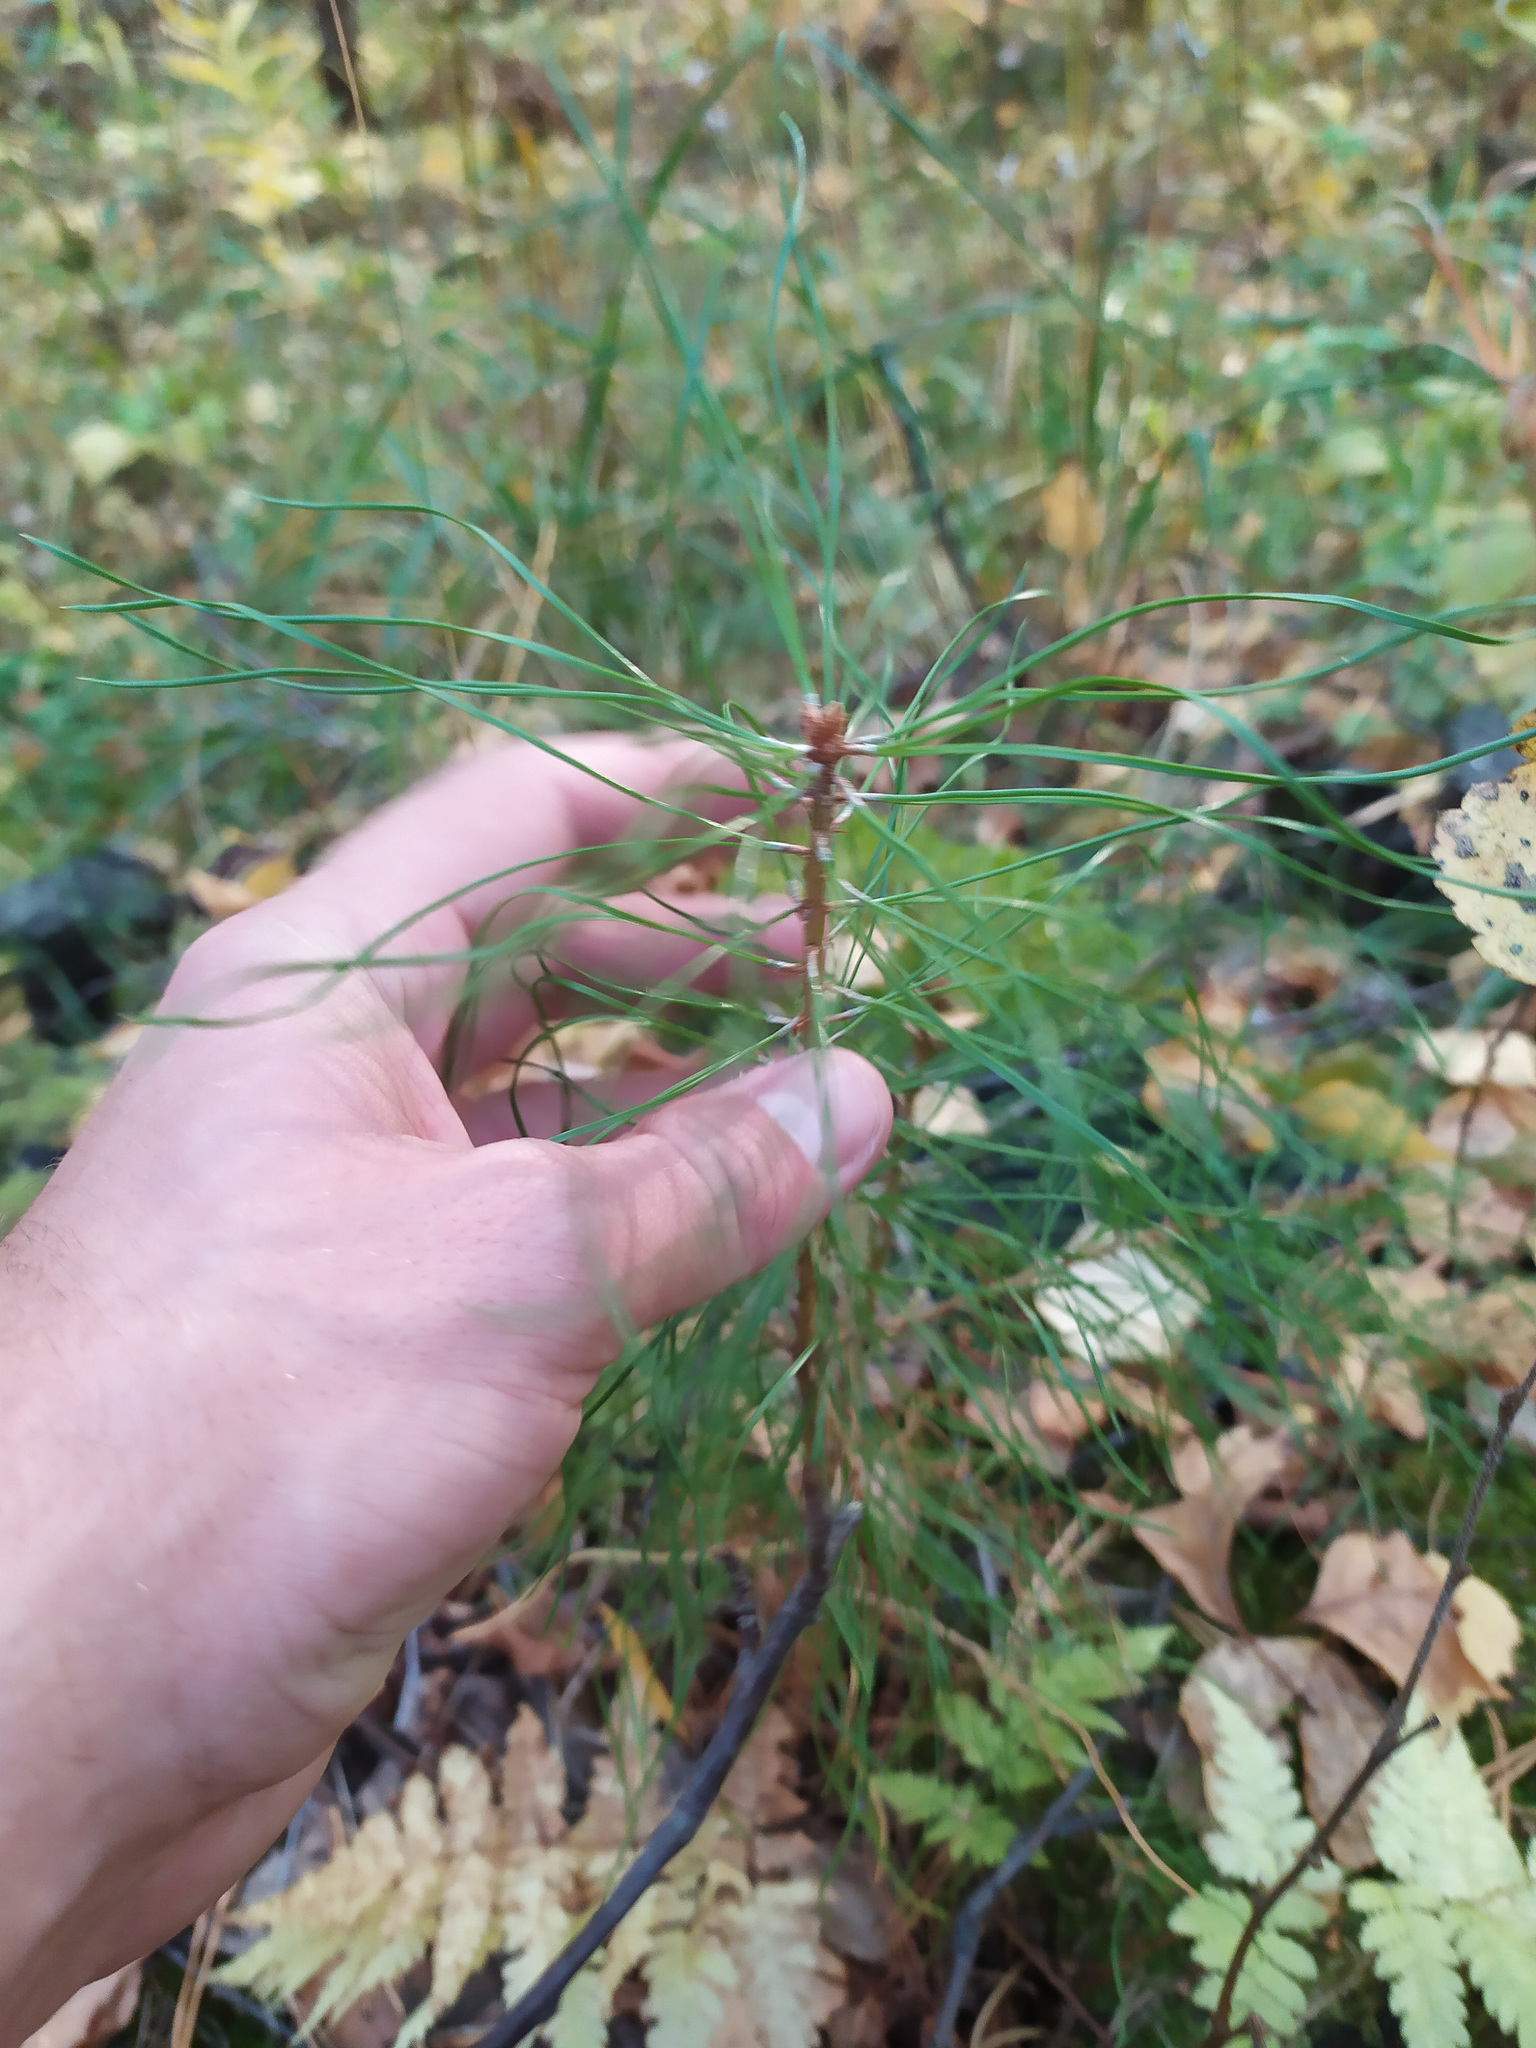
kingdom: Plantae
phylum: Tracheophyta
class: Pinopsida
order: Pinales
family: Pinaceae
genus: Pinus
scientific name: Pinus sylvestris
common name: Scots pine
